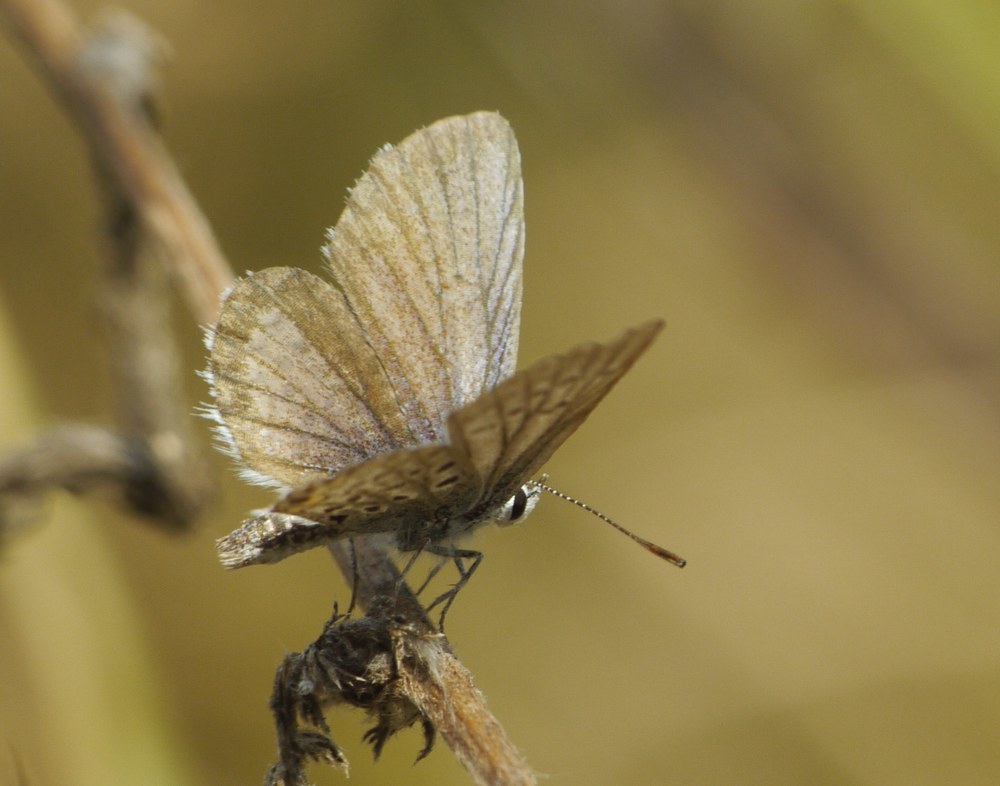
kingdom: Animalia
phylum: Arthropoda
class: Insecta
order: Lepidoptera
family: Lycaenidae
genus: Plebejus
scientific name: Plebejus argus
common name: Silver-studded blue
